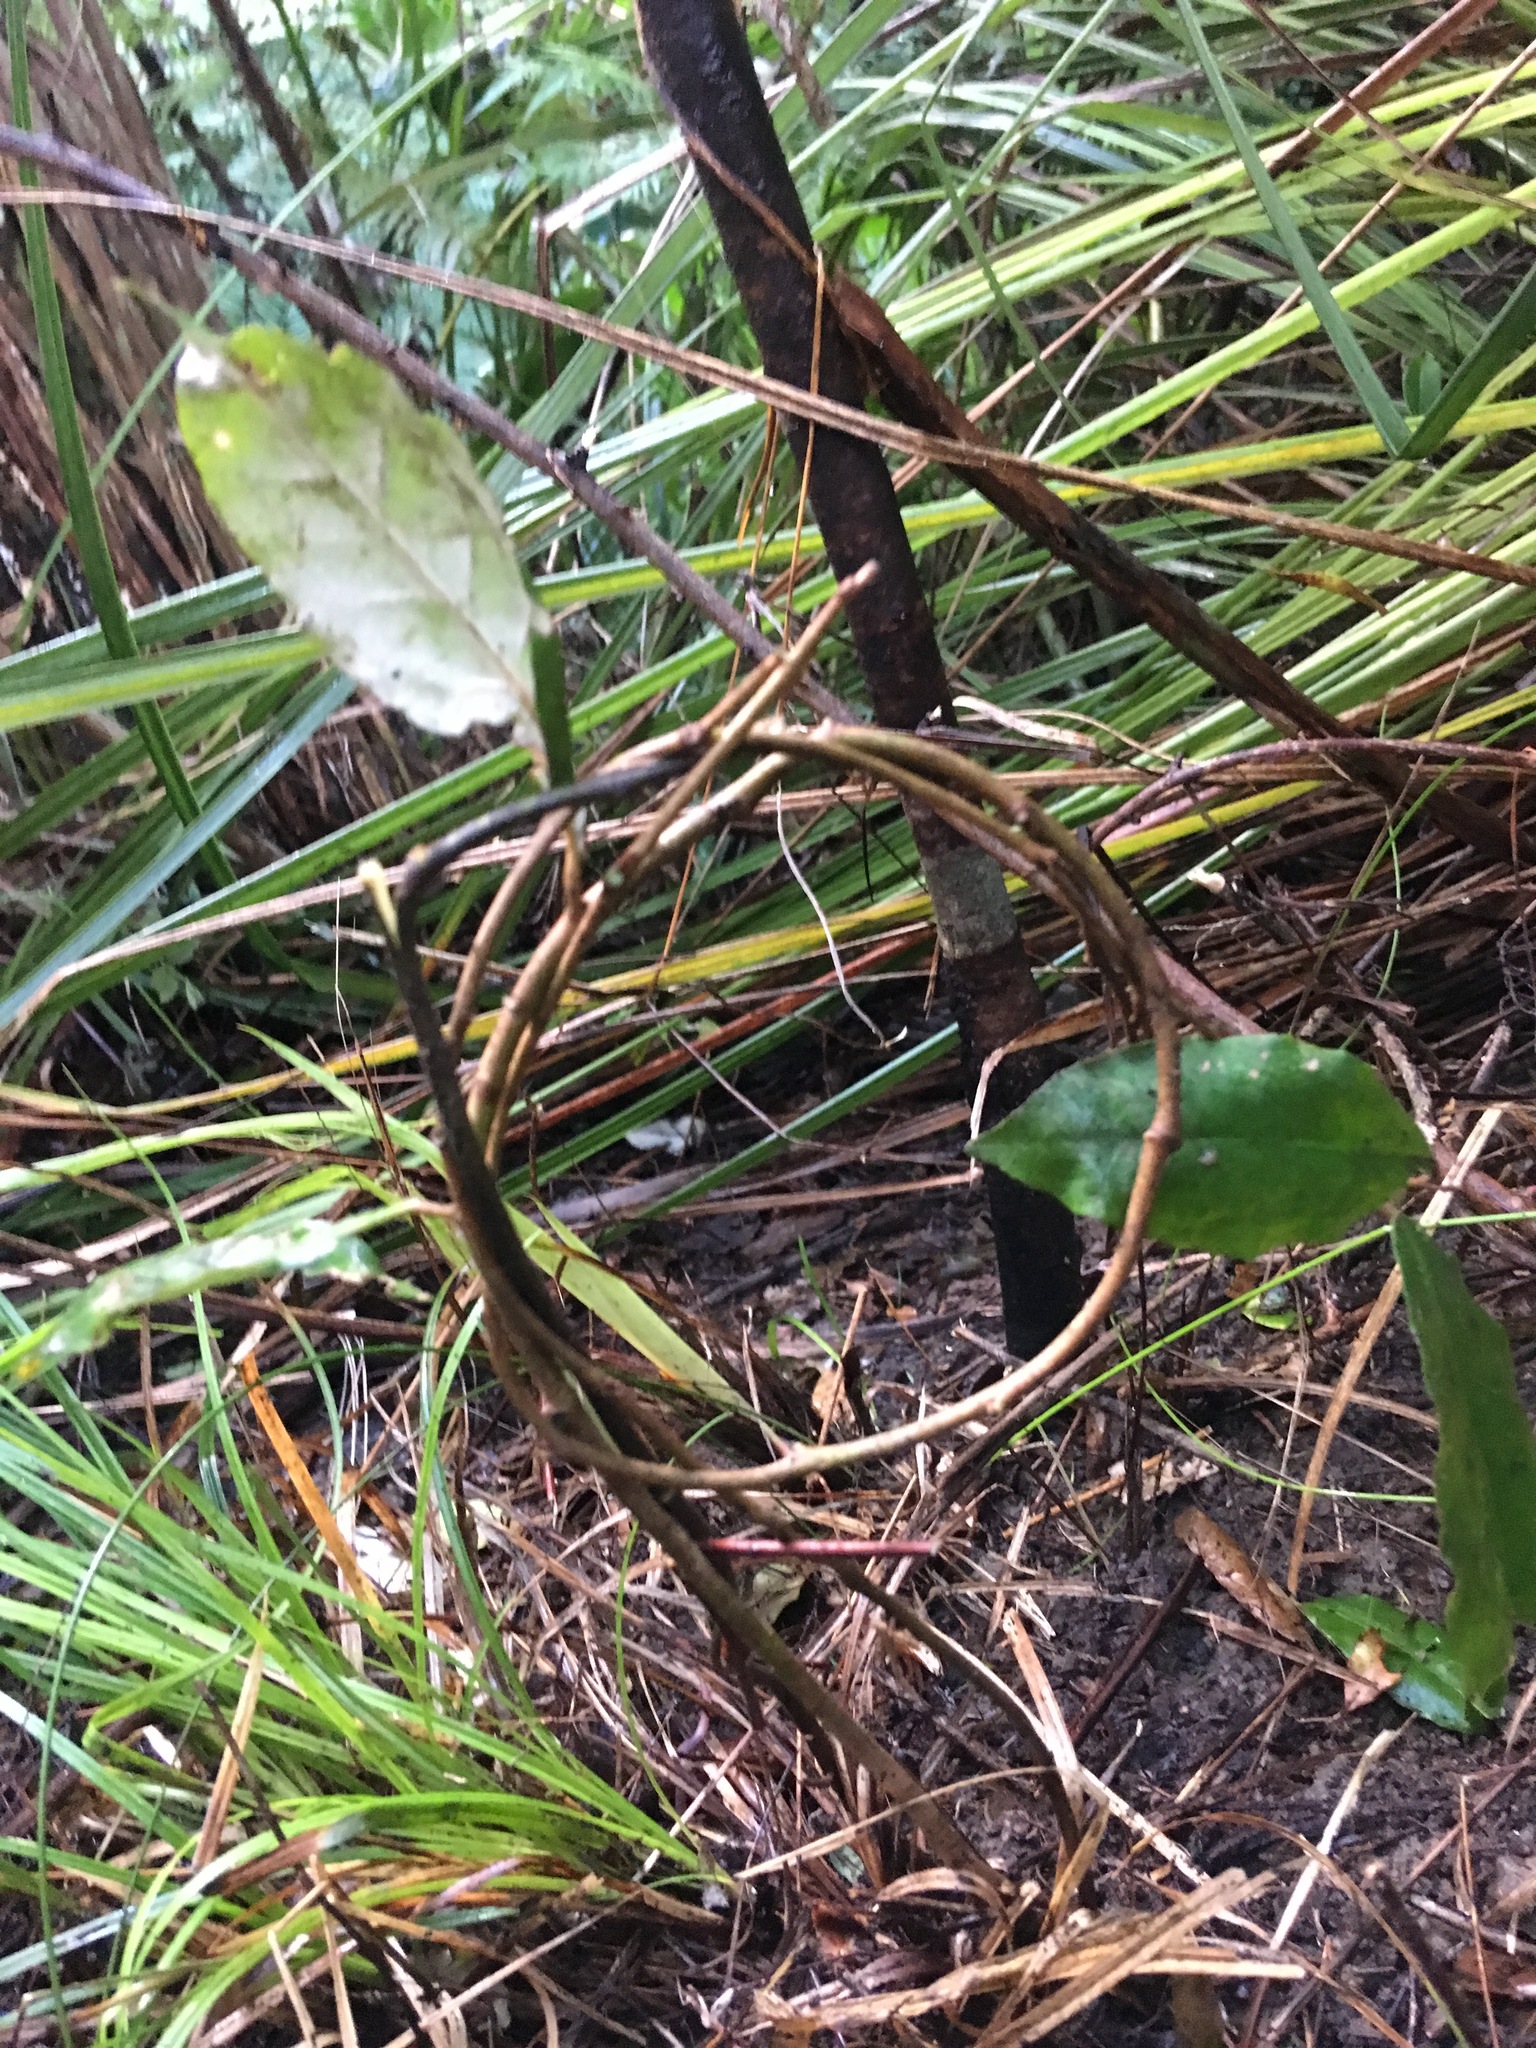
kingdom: Plantae
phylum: Tracheophyta
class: Magnoliopsida
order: Rosales
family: Elaeagnaceae
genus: Elaeagnus
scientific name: Elaeagnus reflexa
